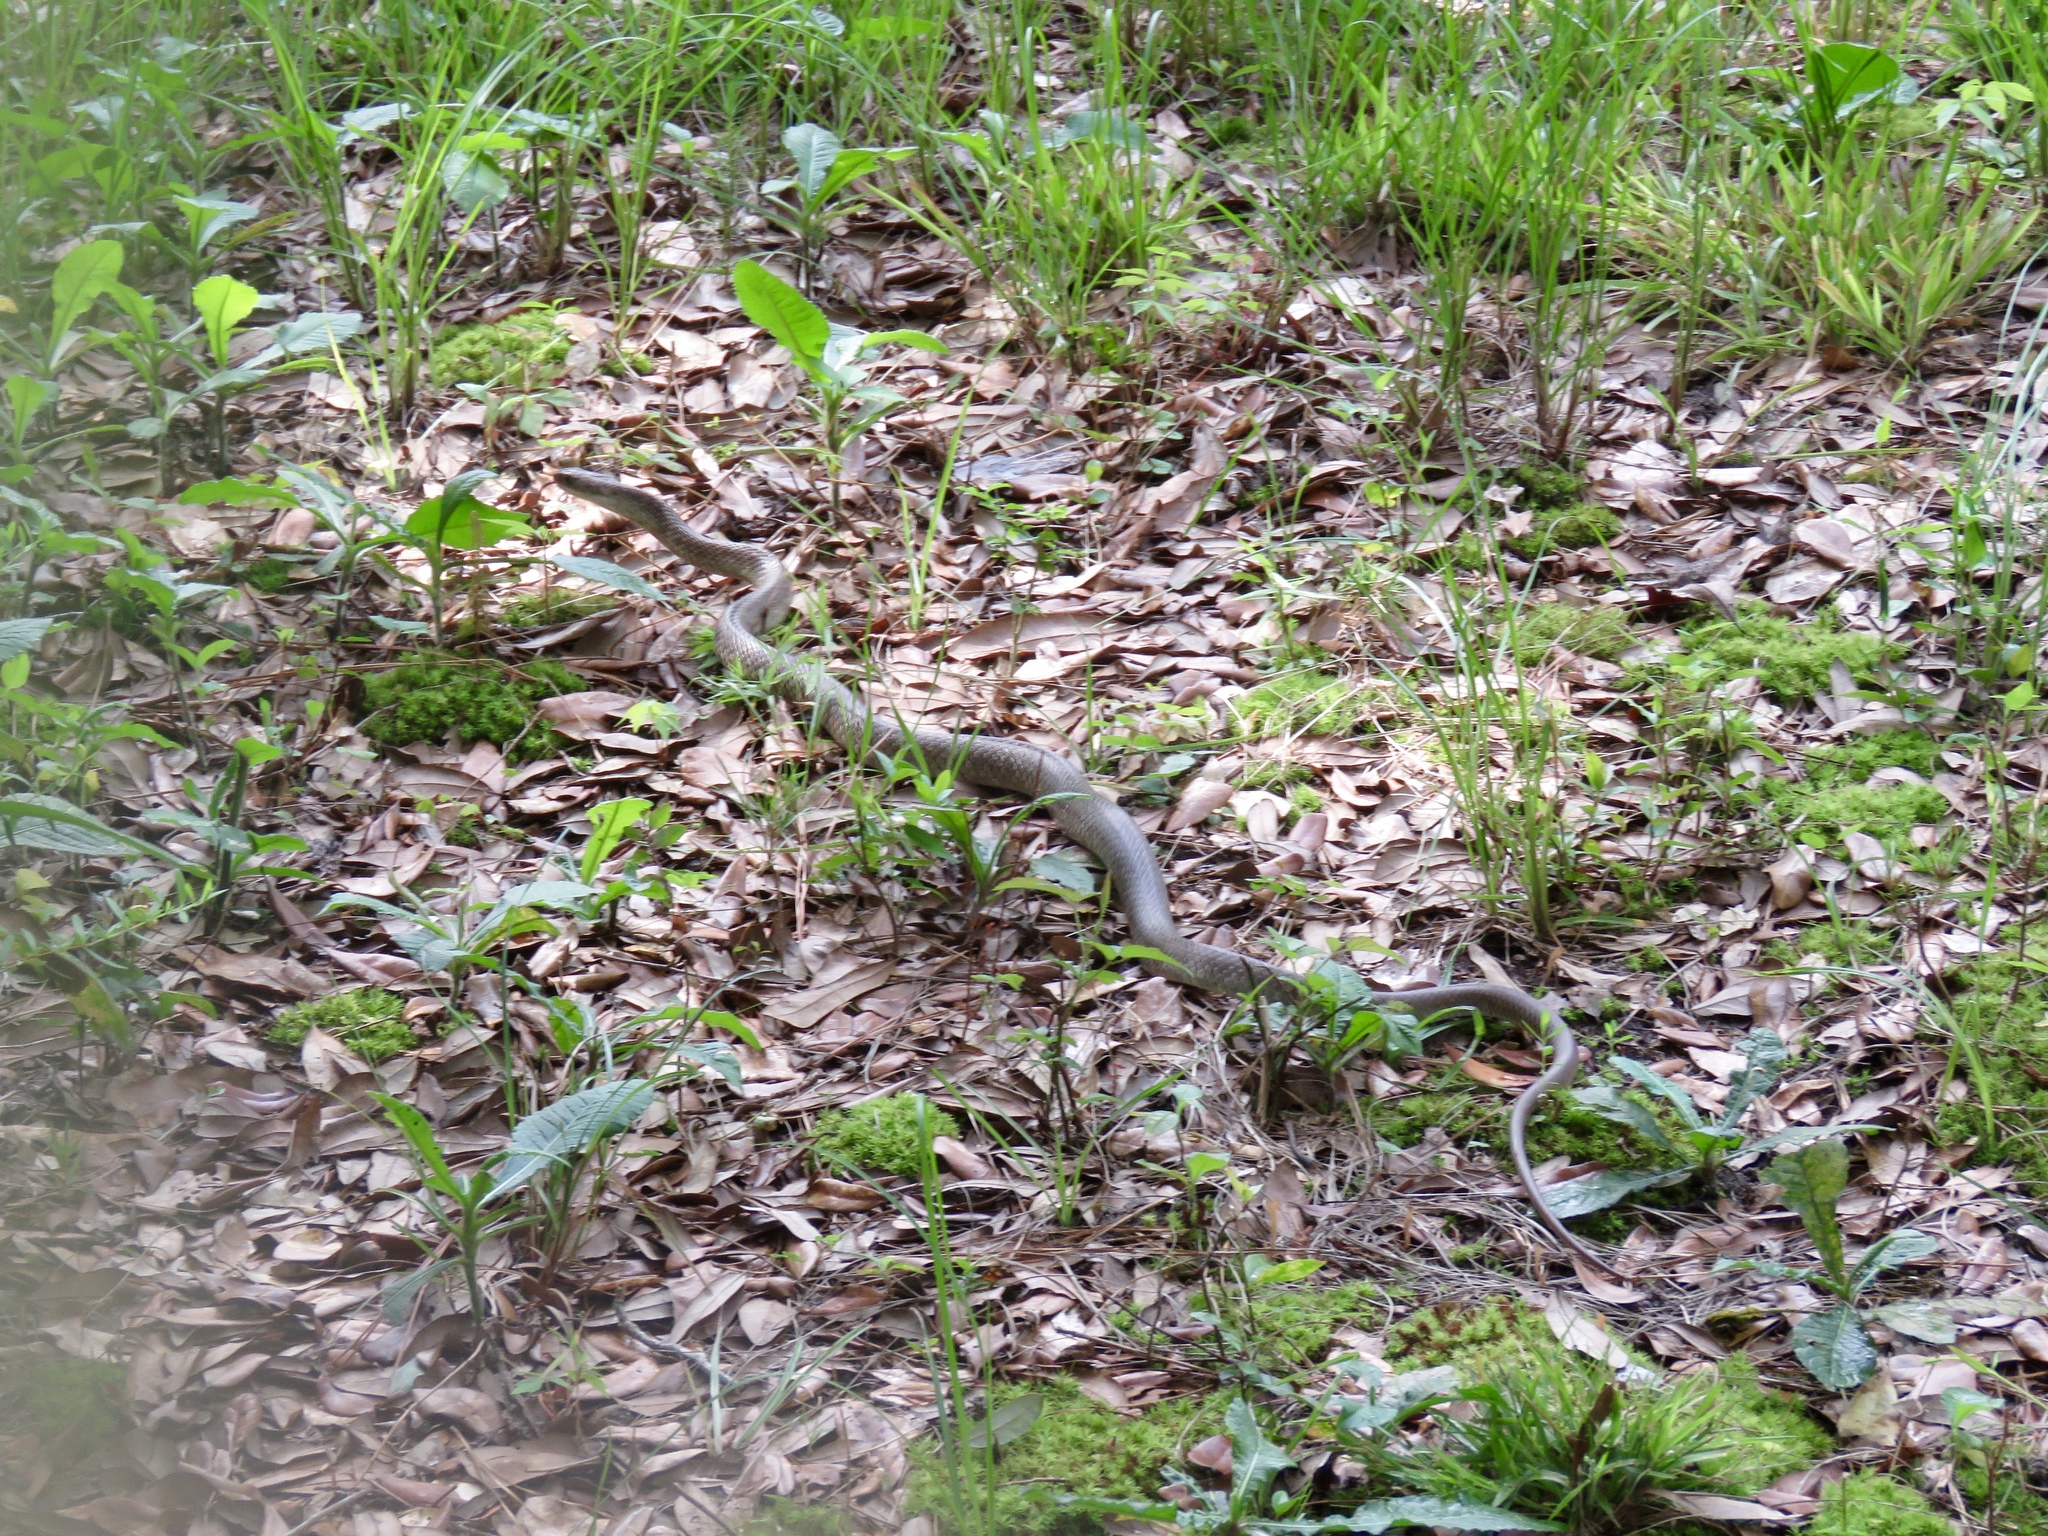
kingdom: Animalia
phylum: Chordata
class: Squamata
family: Colubridae
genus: Coluber
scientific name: Coluber constrictor
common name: Eastern racer
